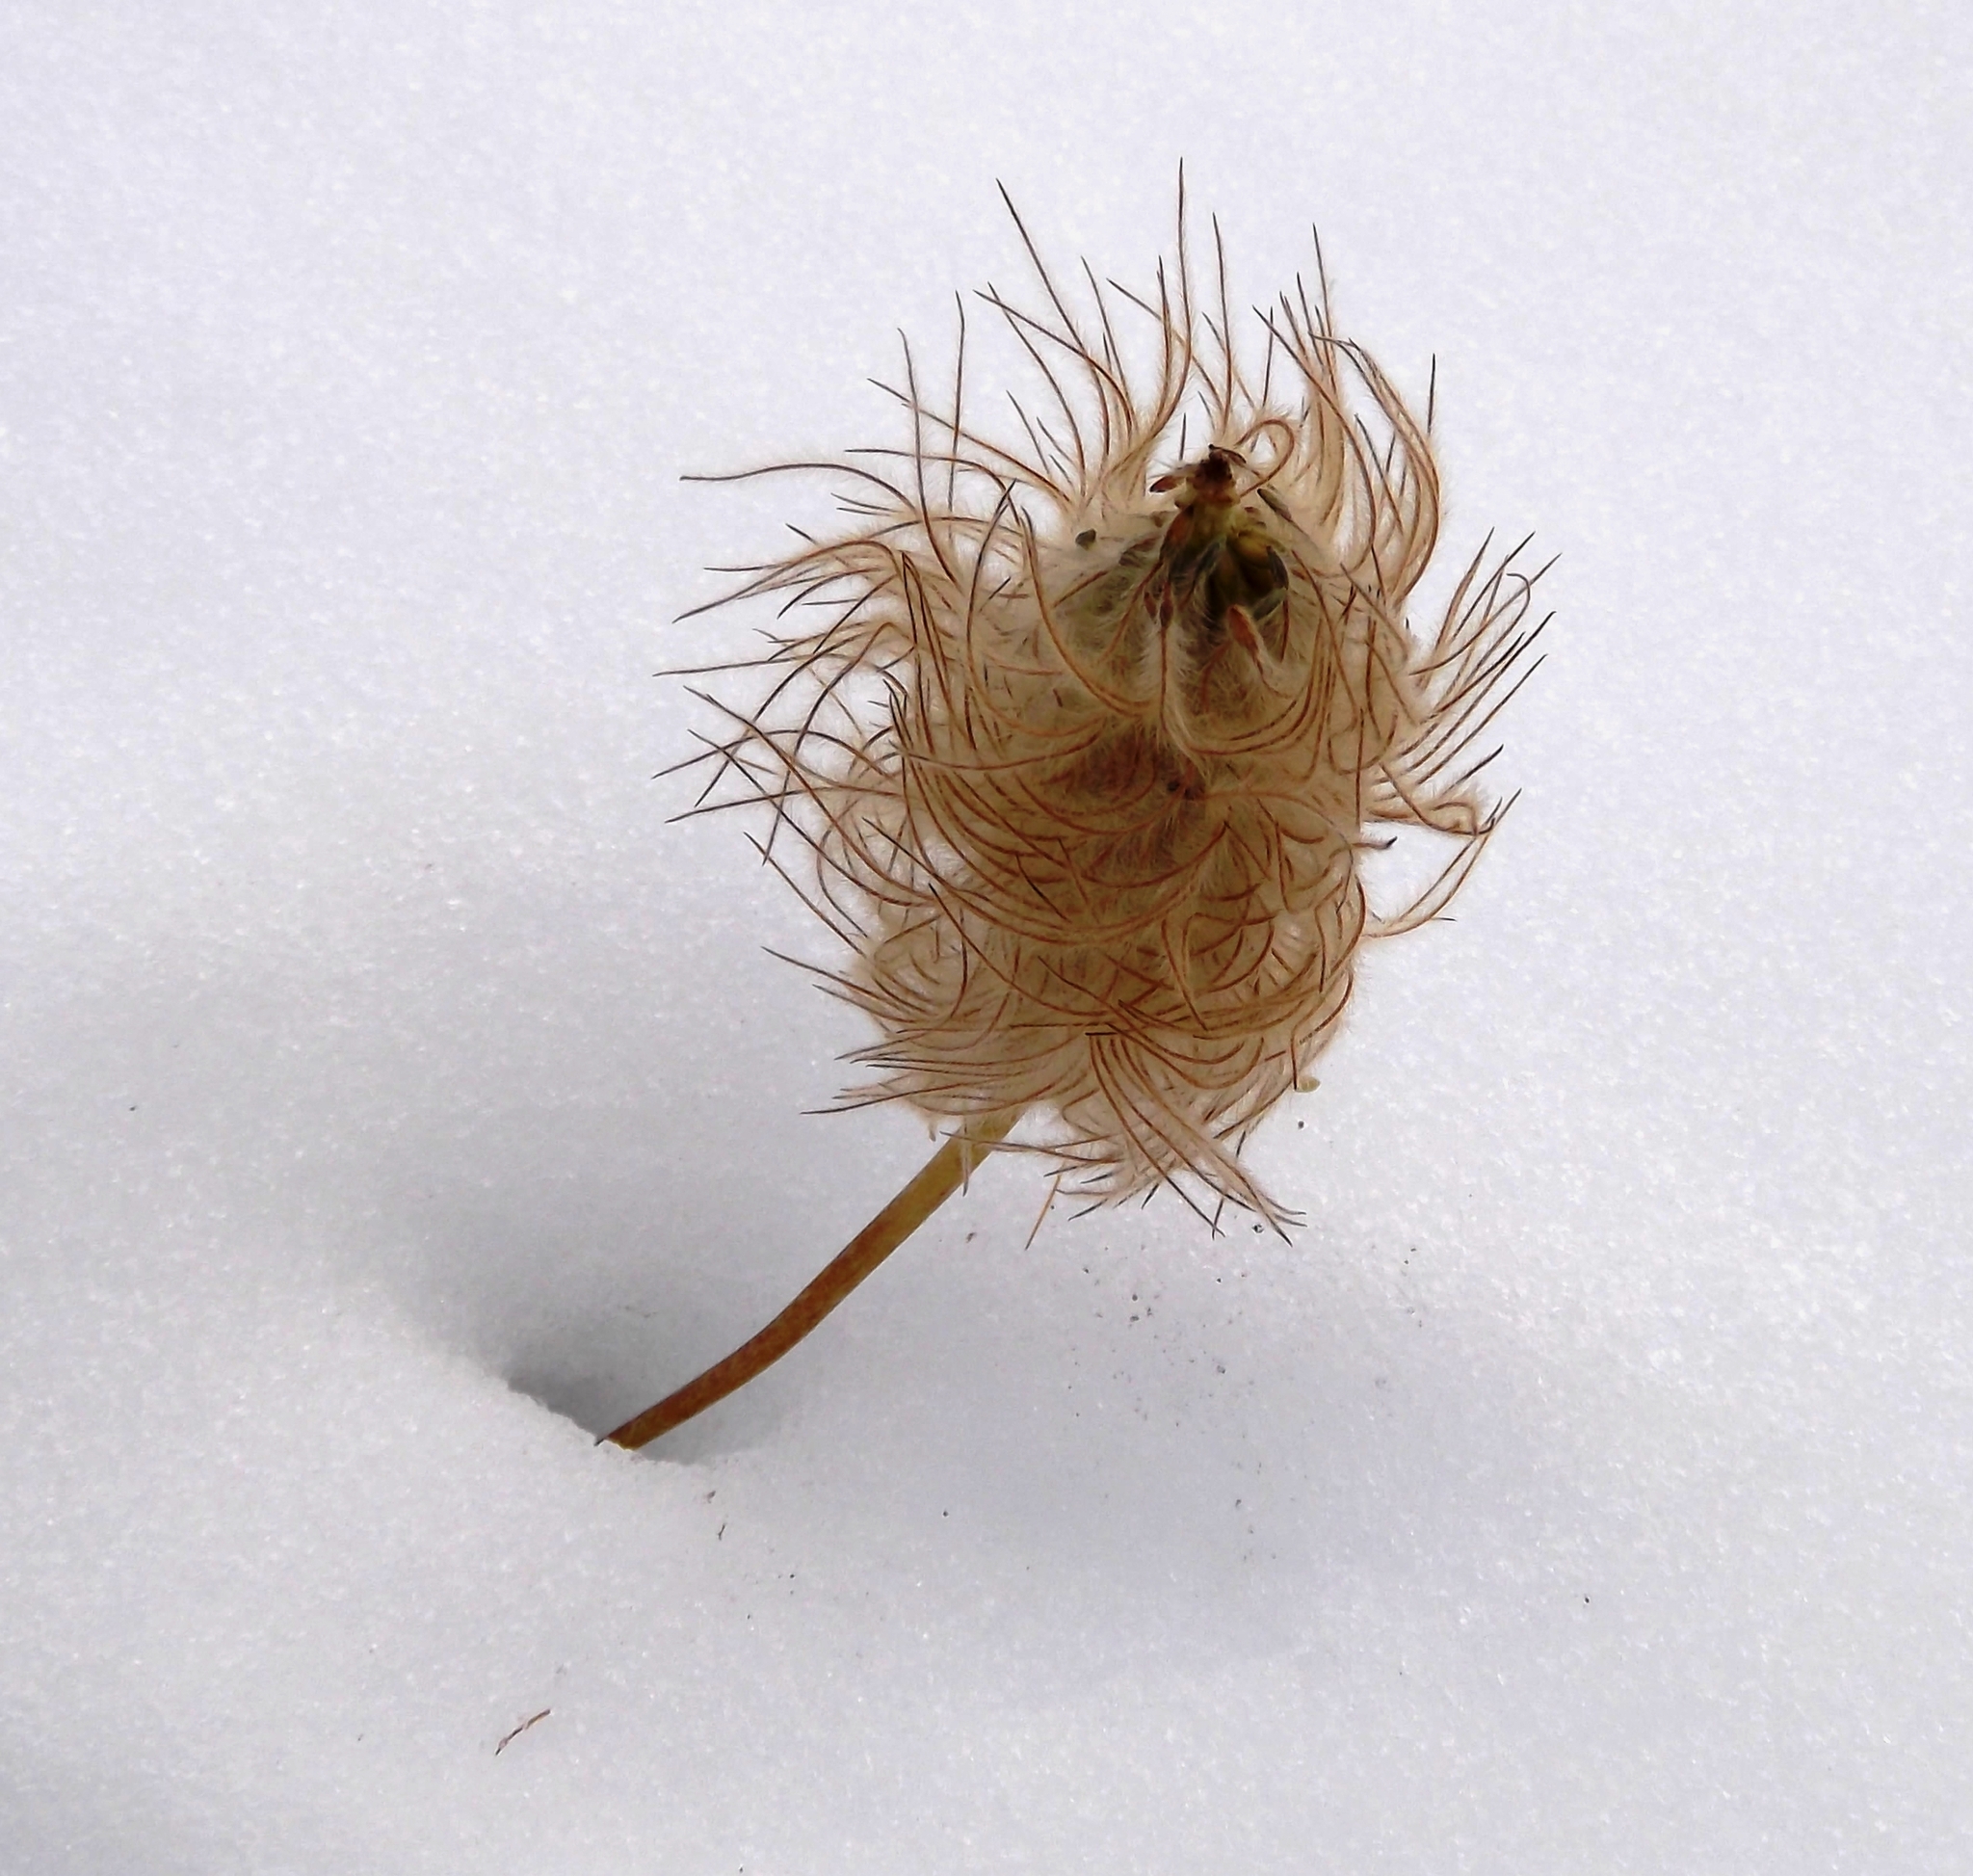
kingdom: Plantae
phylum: Tracheophyta
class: Magnoliopsida
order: Ranunculales
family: Ranunculaceae
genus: Pulsatilla
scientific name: Pulsatilla occidentalis
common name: Mountain pasqueflower
